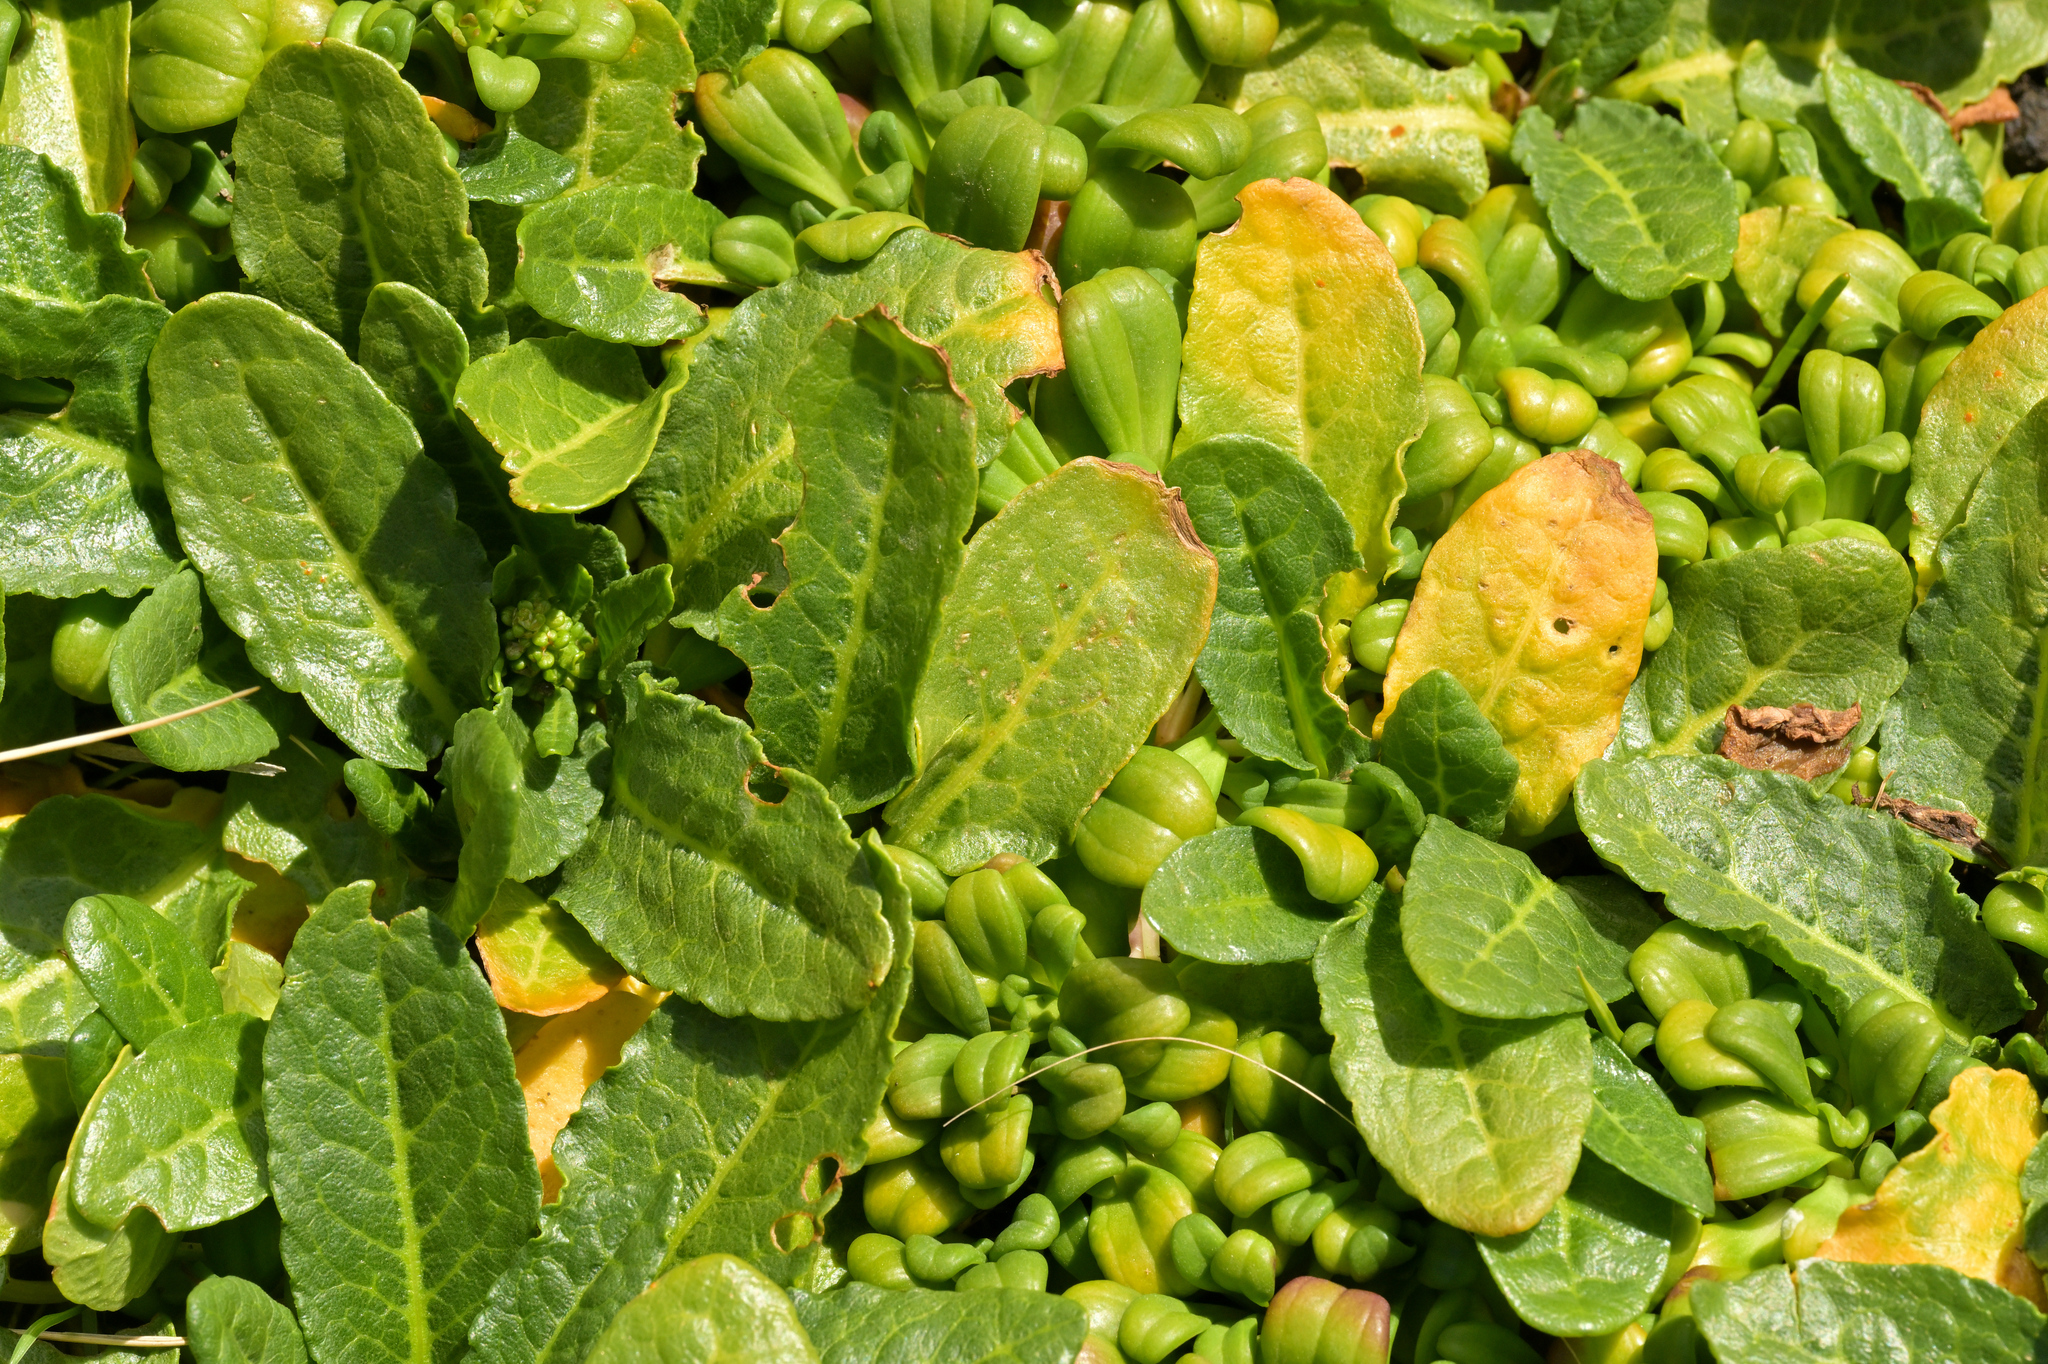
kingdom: Plantae
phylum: Tracheophyta
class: Magnoliopsida
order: Caryophyllales
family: Polygonaceae
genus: Rumex
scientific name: Rumex neglectus
